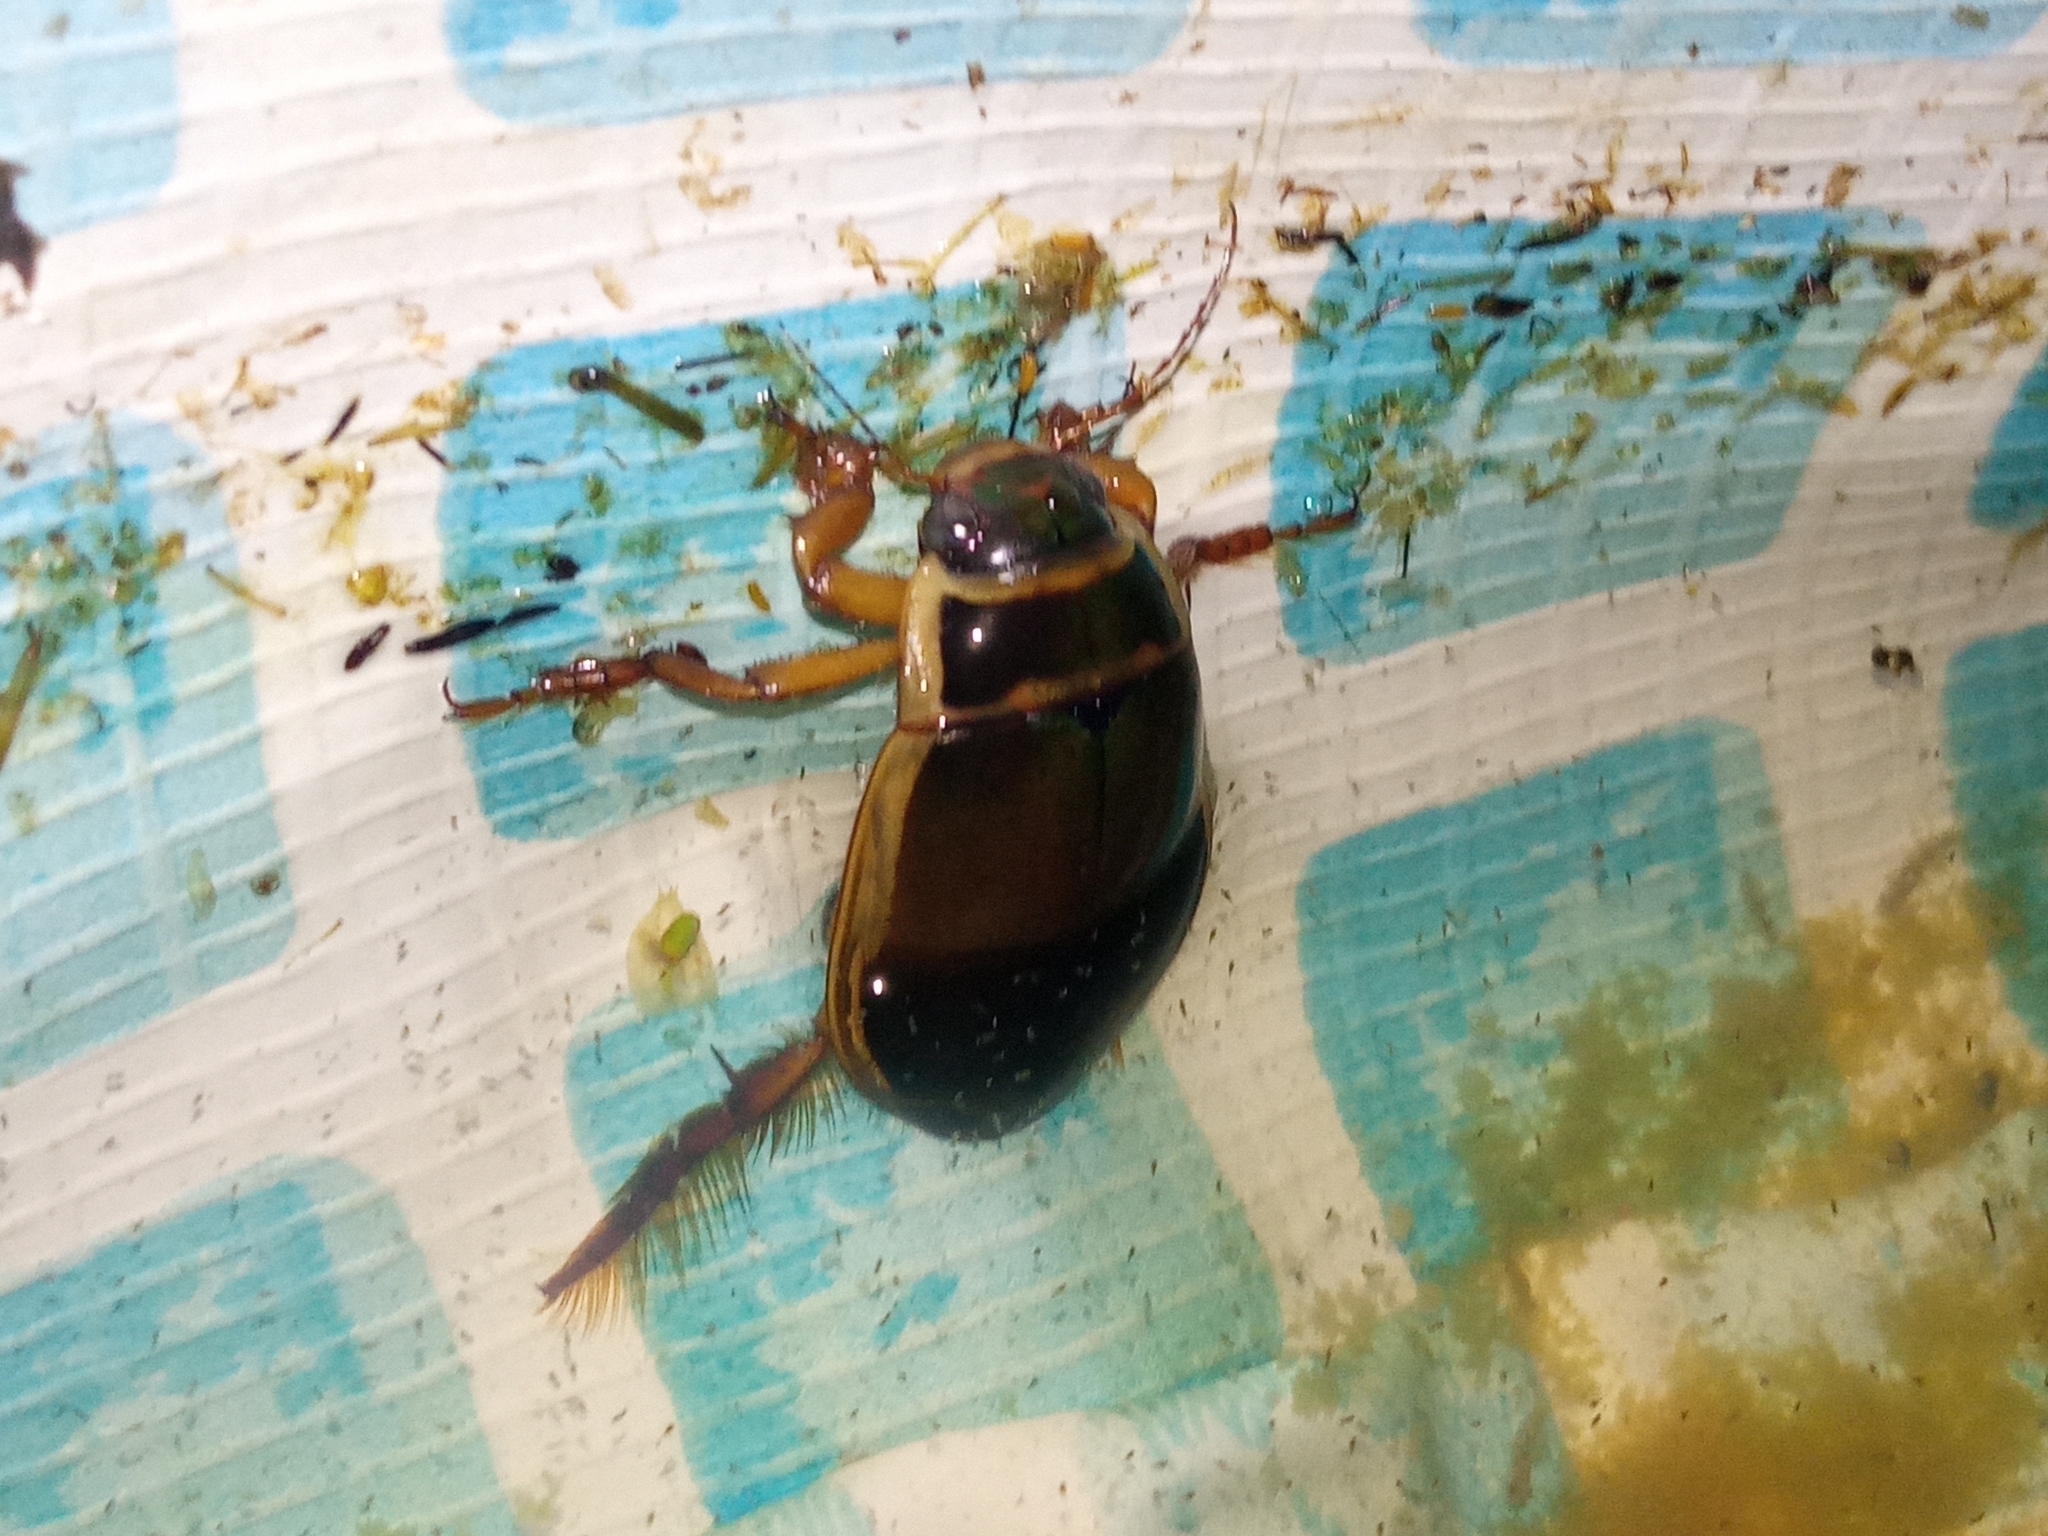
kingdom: Animalia
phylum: Arthropoda
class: Insecta
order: Coleoptera
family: Dytiscidae
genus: Dytiscus
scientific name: Dytiscus marginalis
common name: Great water beetle
